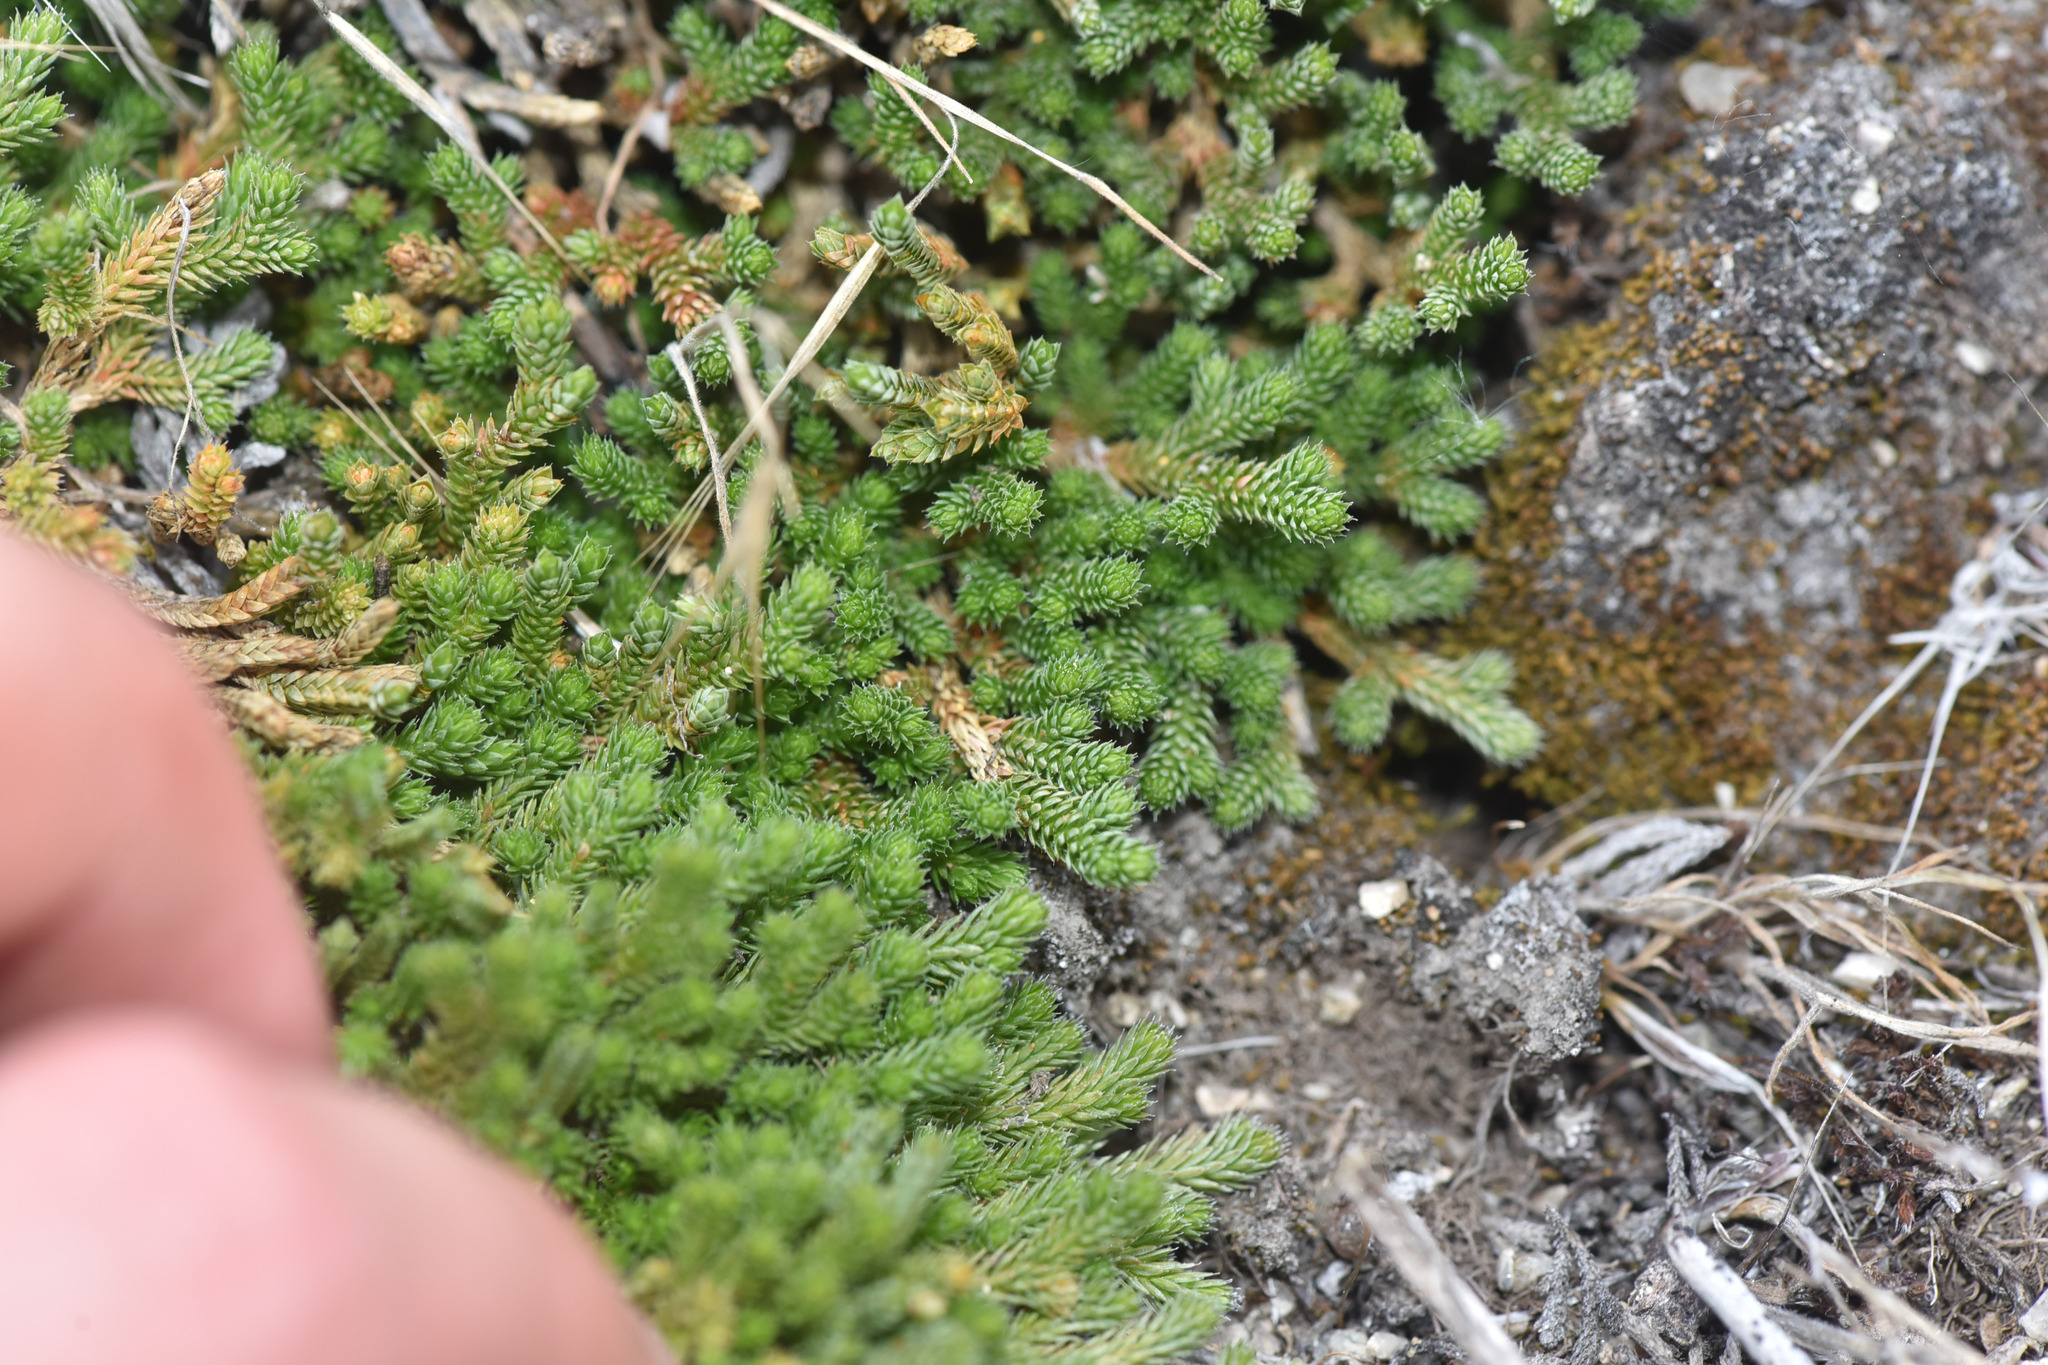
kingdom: Plantae
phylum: Tracheophyta
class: Lycopodiopsida
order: Selaginellales
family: Selaginellaceae
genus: Selaginella
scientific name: Selaginella wallacei
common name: Wallace's selaginella
